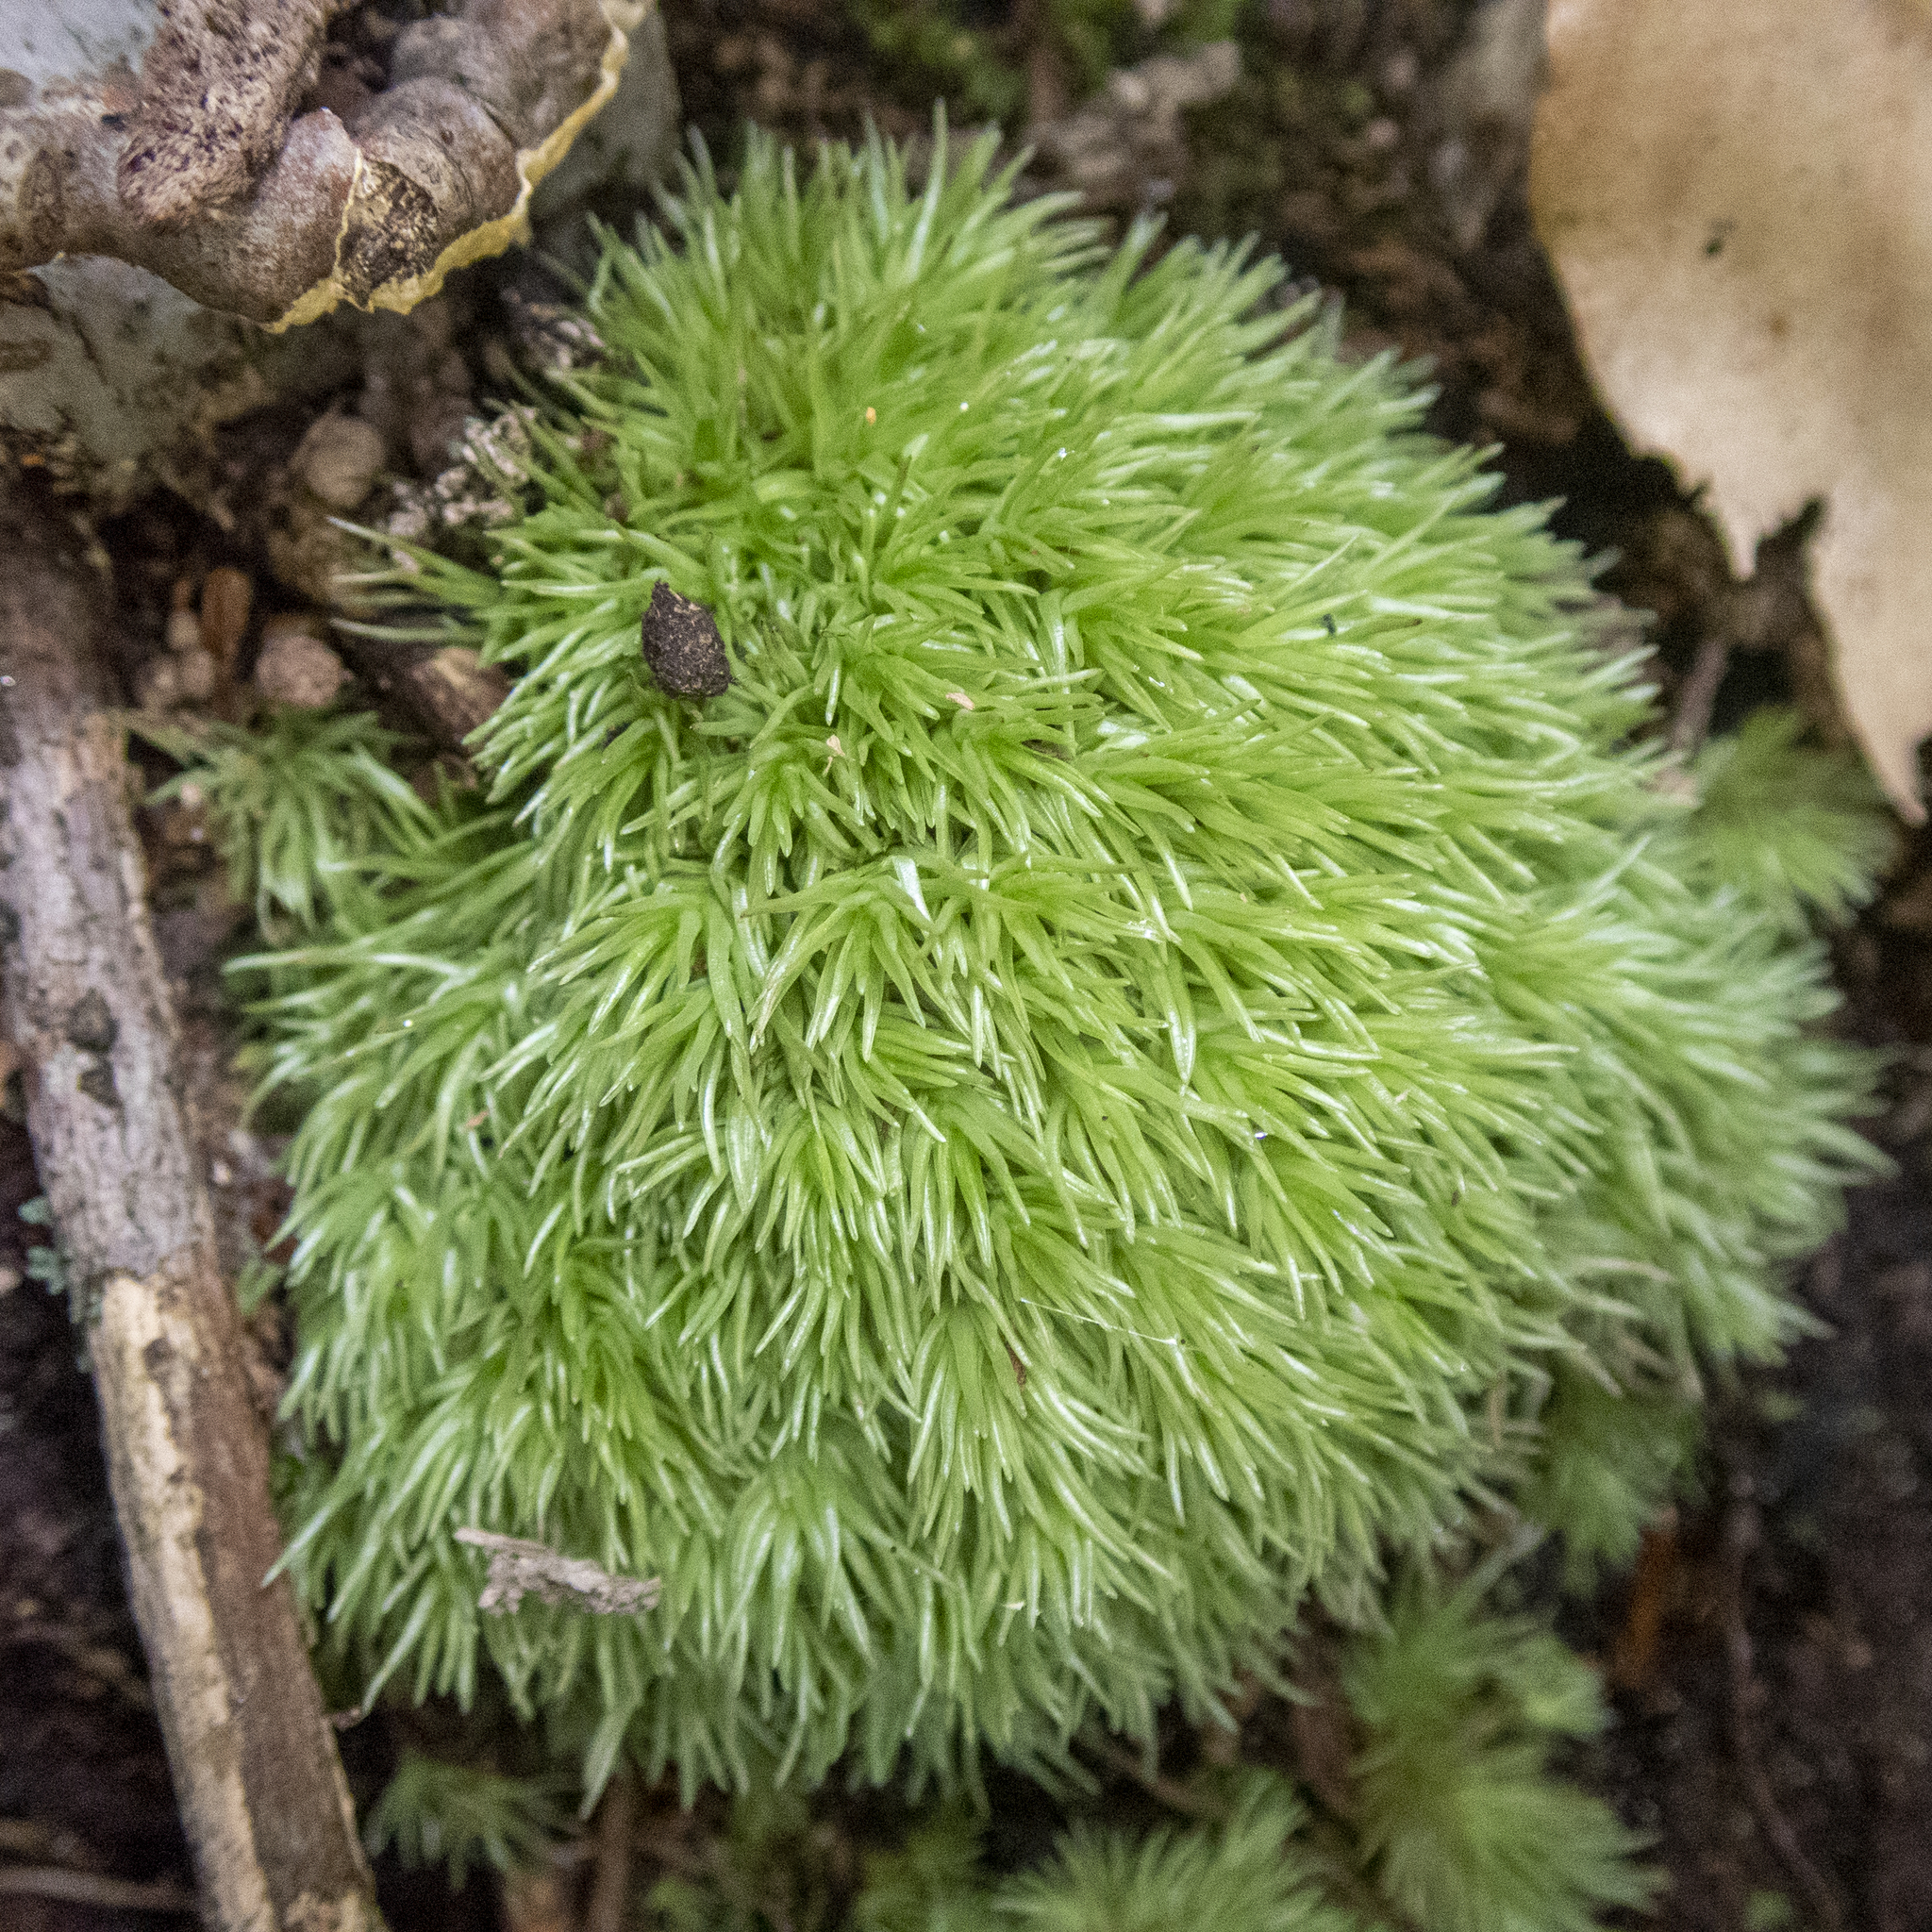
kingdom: Plantae
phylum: Bryophyta
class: Bryopsida
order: Dicranales
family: Leucobryaceae
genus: Leucobryum
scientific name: Leucobryum glaucum
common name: Large white-moss
